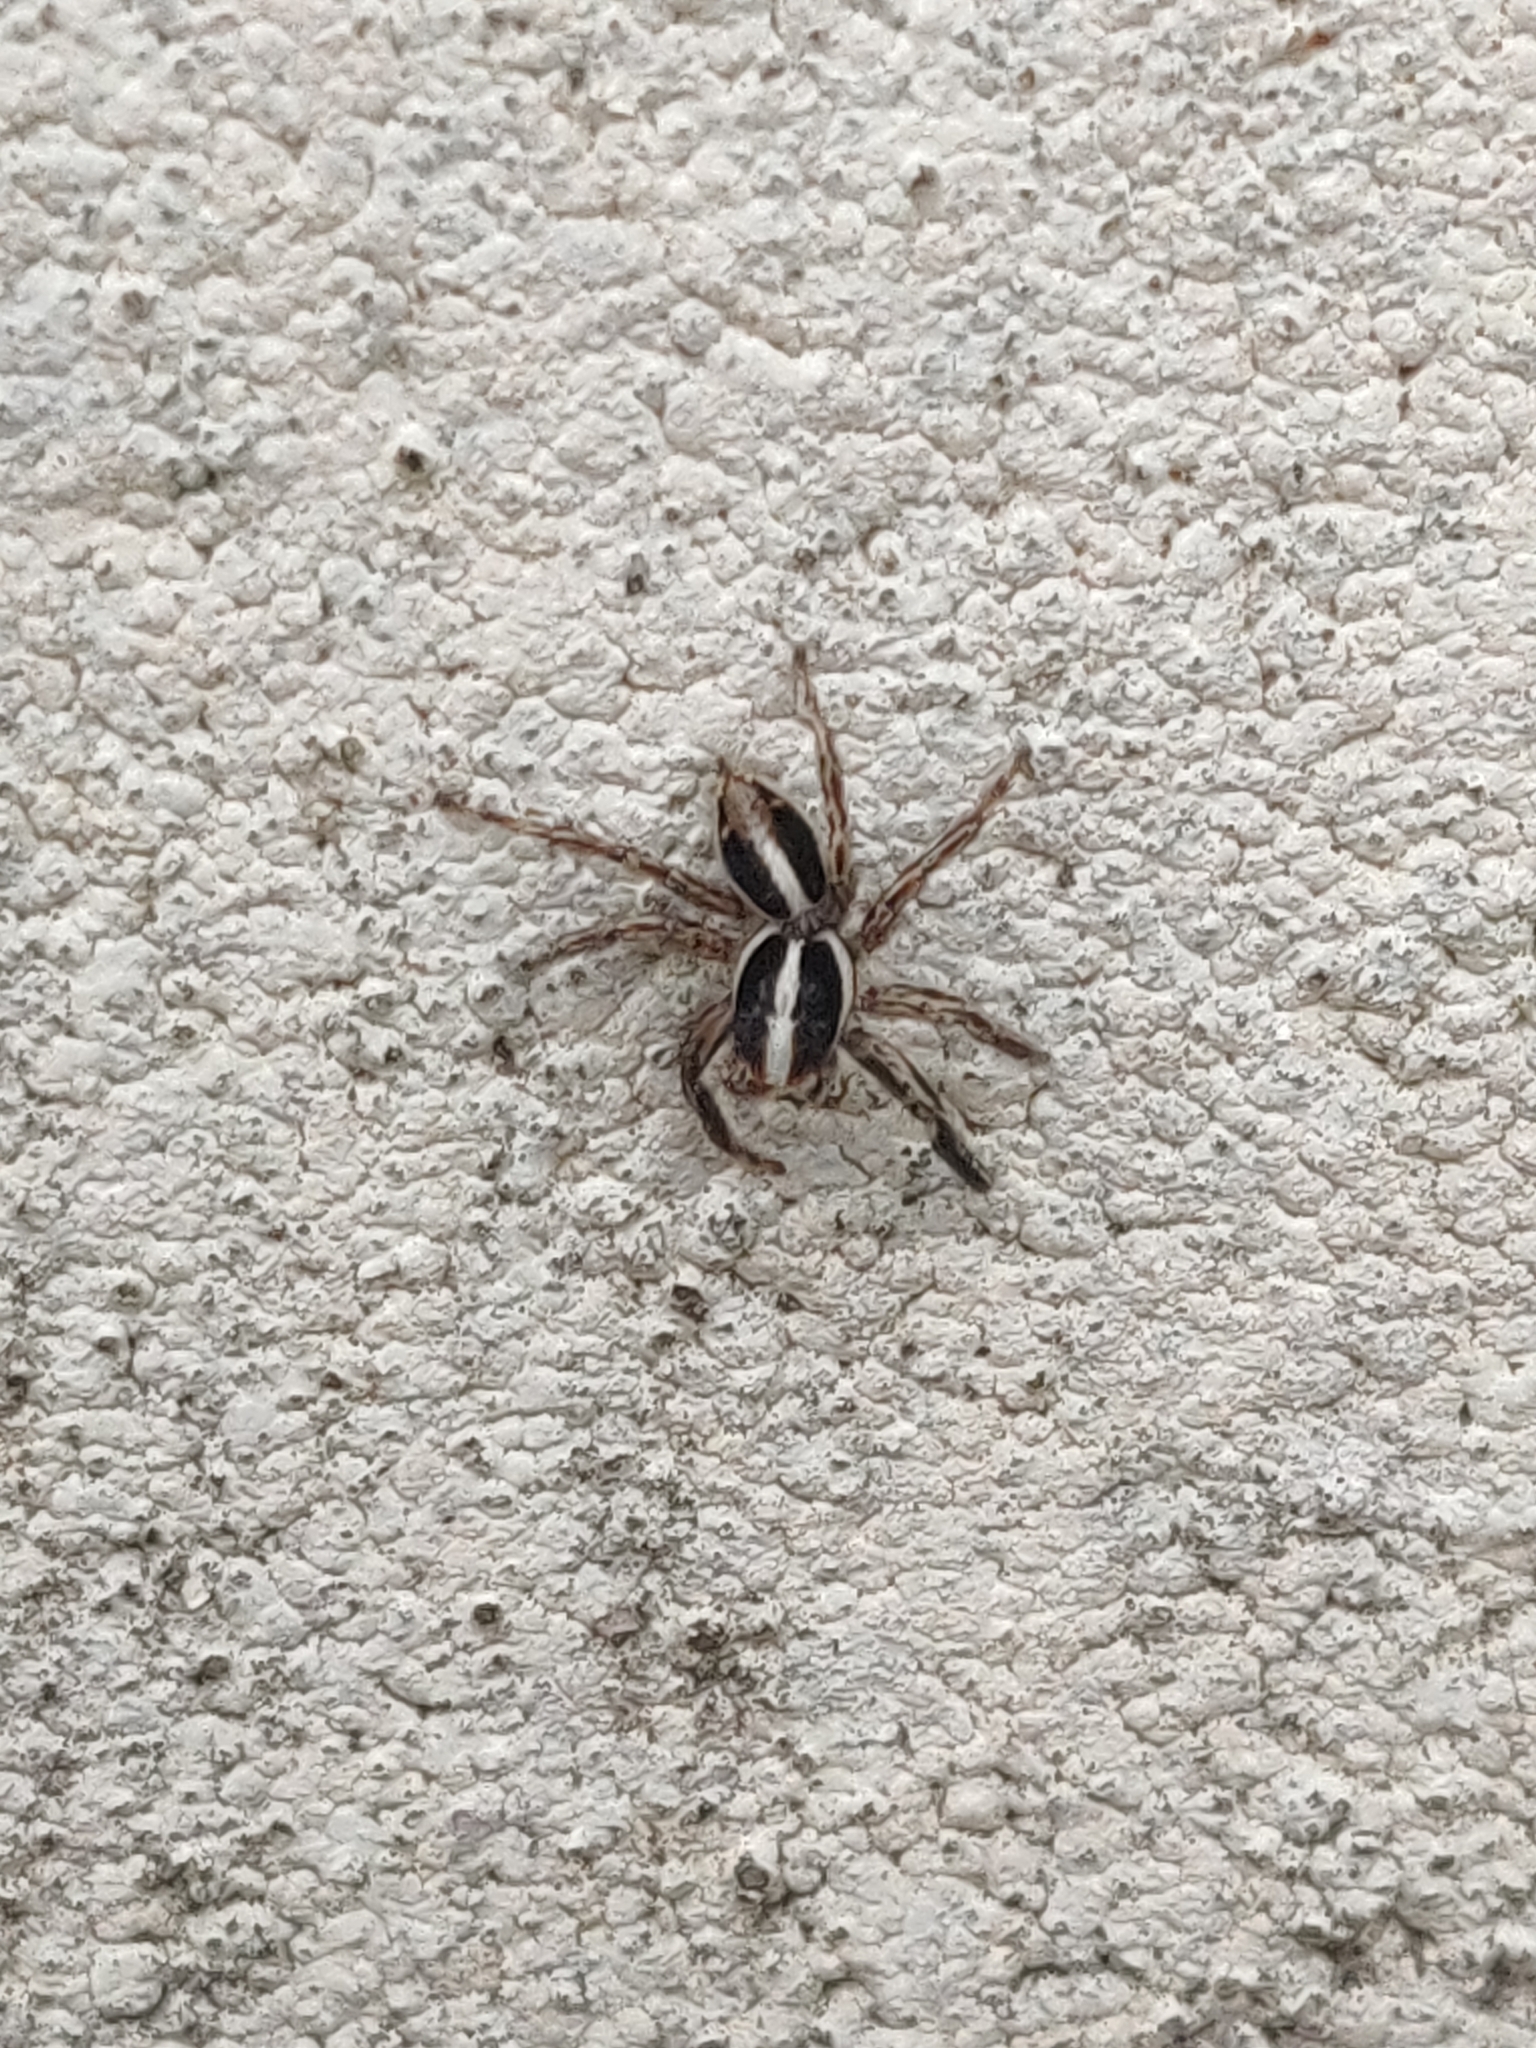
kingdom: Animalia
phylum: Arthropoda
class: Arachnida
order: Araneae
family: Salticidae
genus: Plexippus
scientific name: Plexippus paykulli
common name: Pantropical jumper
